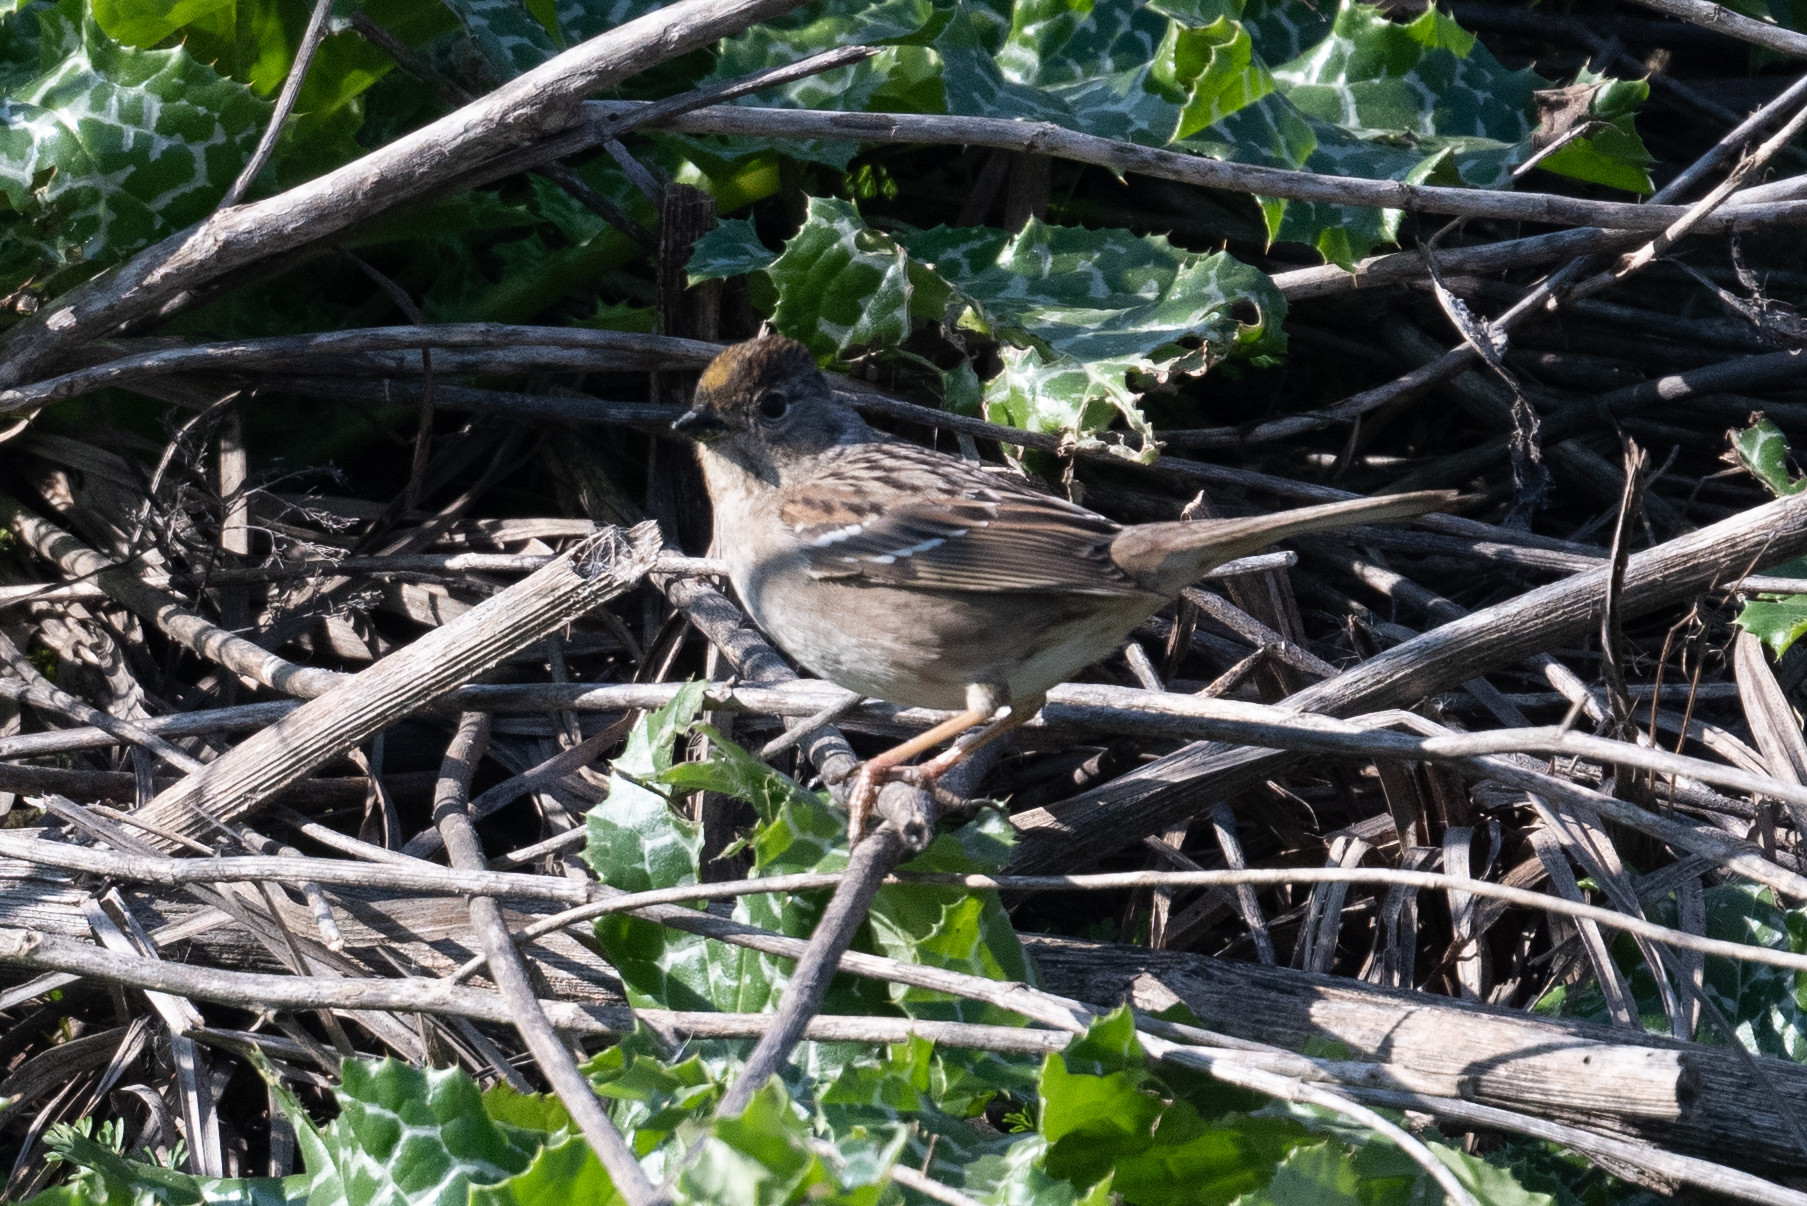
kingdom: Animalia
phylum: Chordata
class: Aves
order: Passeriformes
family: Passerellidae
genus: Zonotrichia
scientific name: Zonotrichia atricapilla
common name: Golden-crowned sparrow
